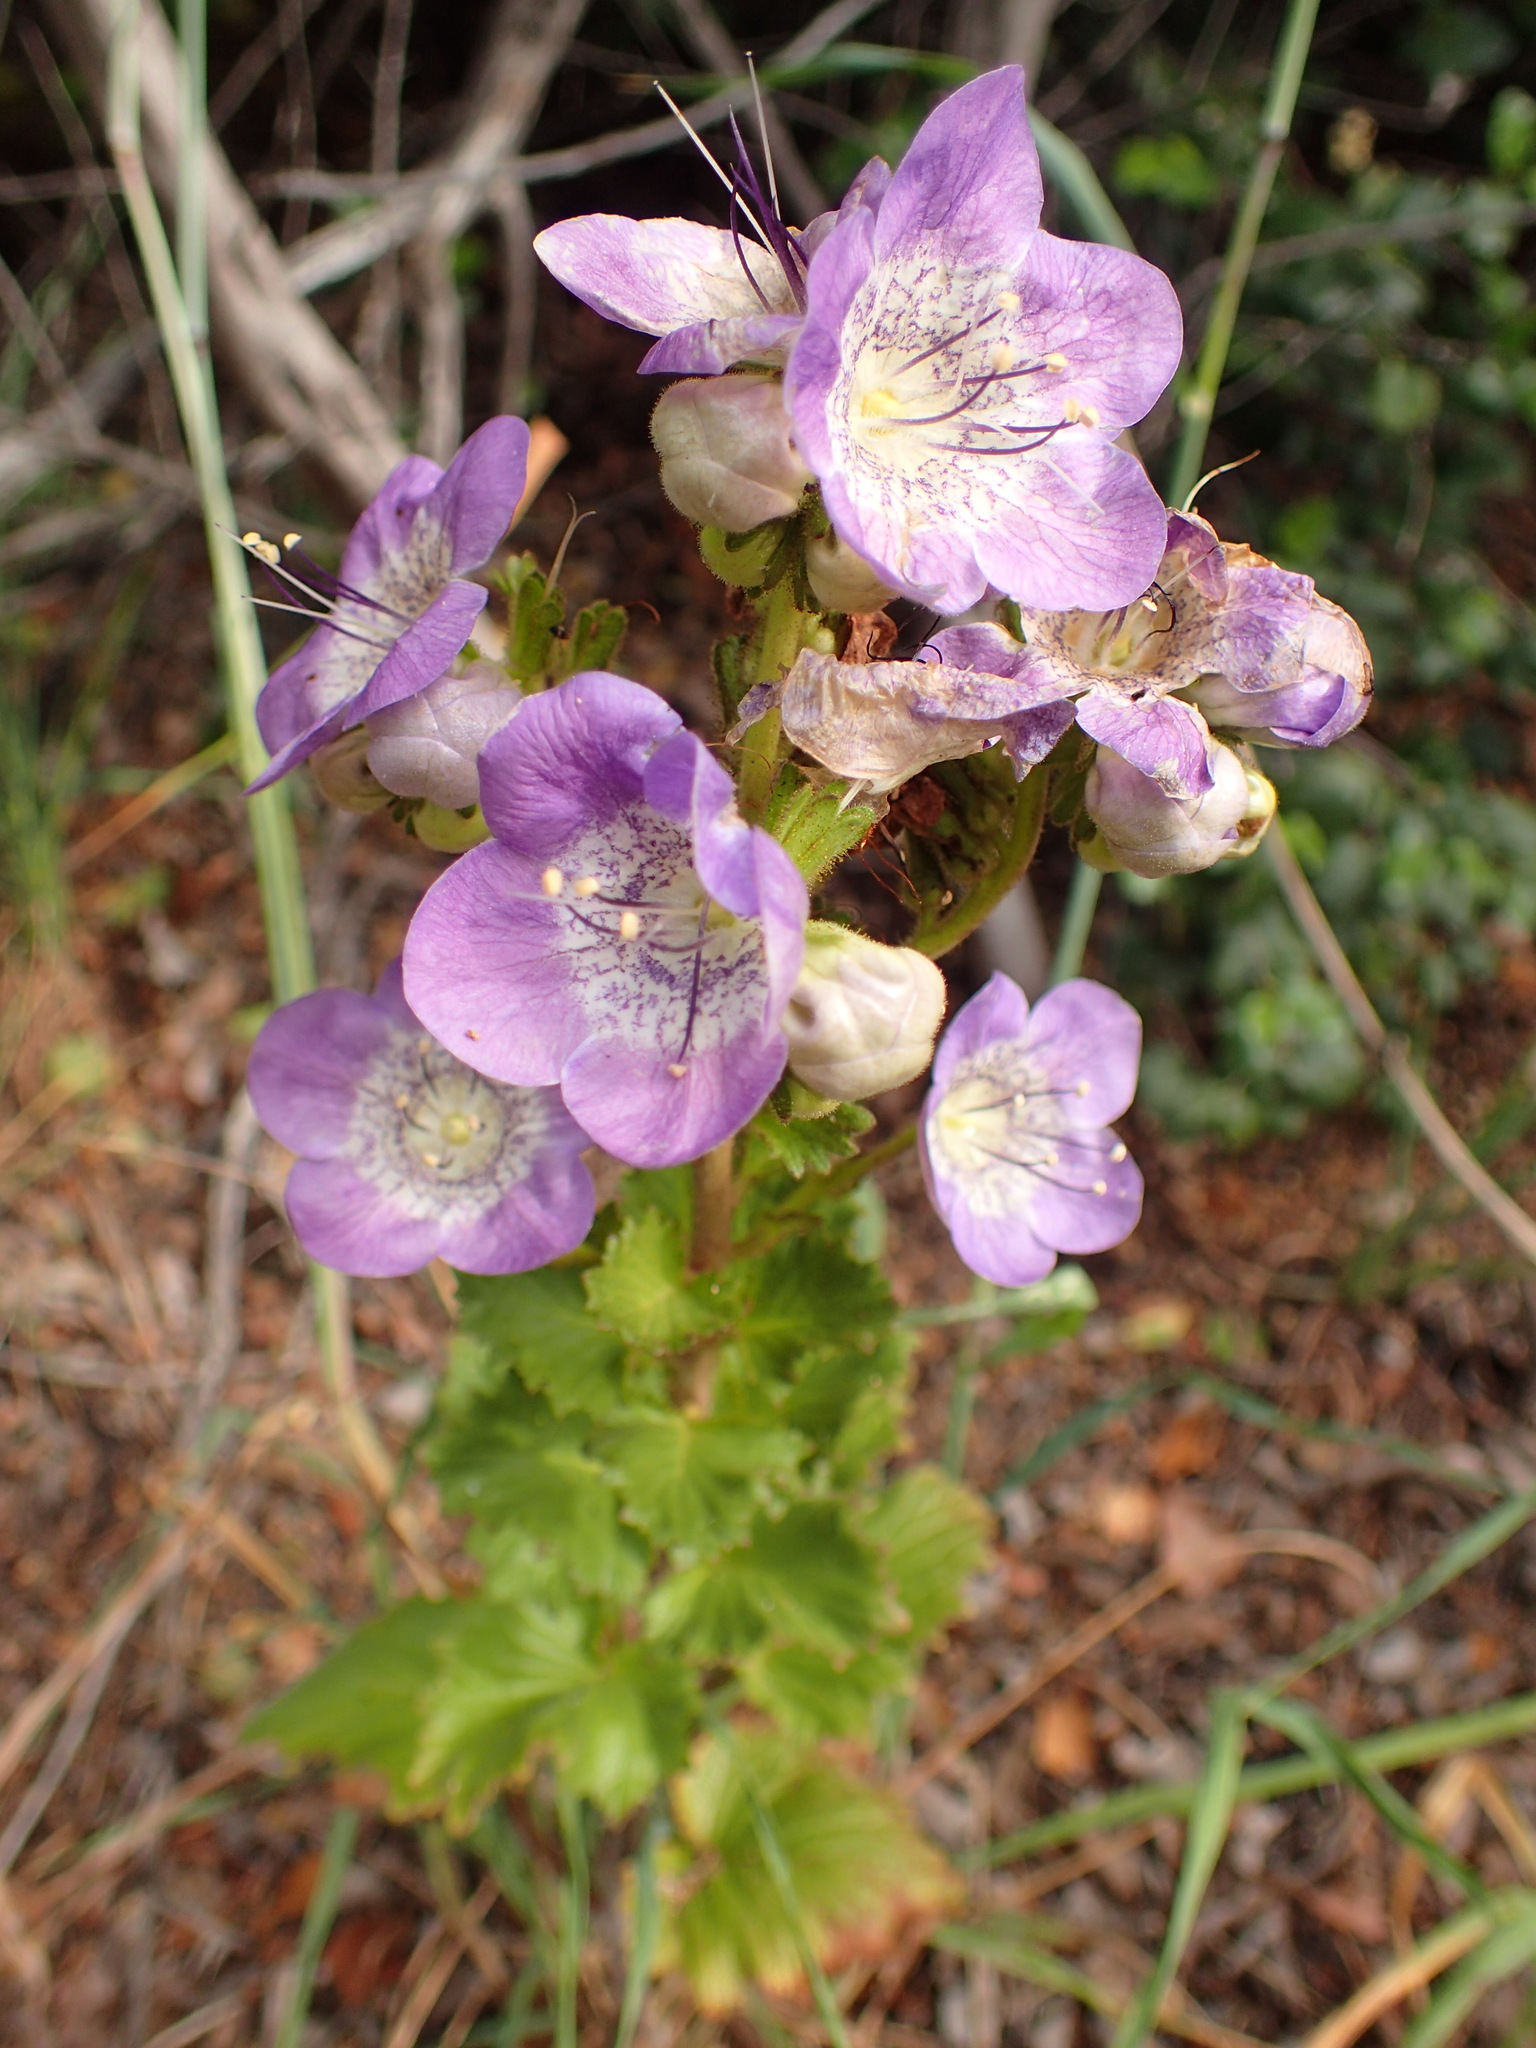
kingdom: Plantae
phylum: Tracheophyta
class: Magnoliopsida
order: Boraginales
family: Hydrophyllaceae
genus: Phacelia
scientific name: Phacelia grandiflora
